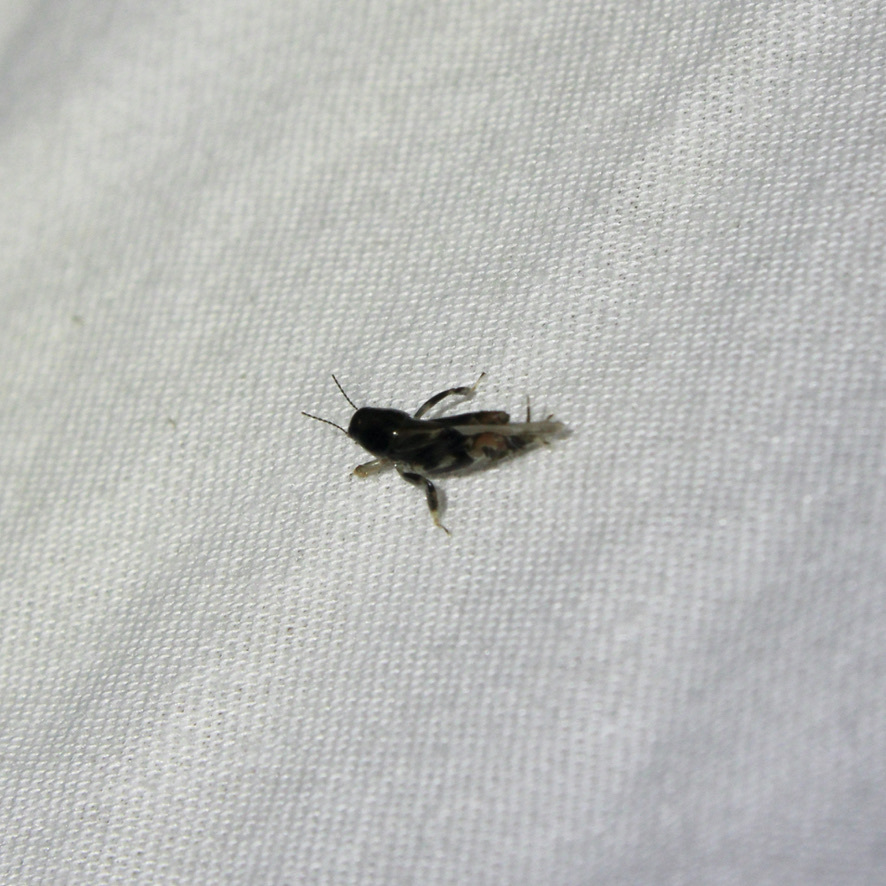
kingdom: Animalia
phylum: Arthropoda
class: Insecta
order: Orthoptera
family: Tridactylidae
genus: Neotridactylus
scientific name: Neotridactylus apicialis
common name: Larger pygmy locust
